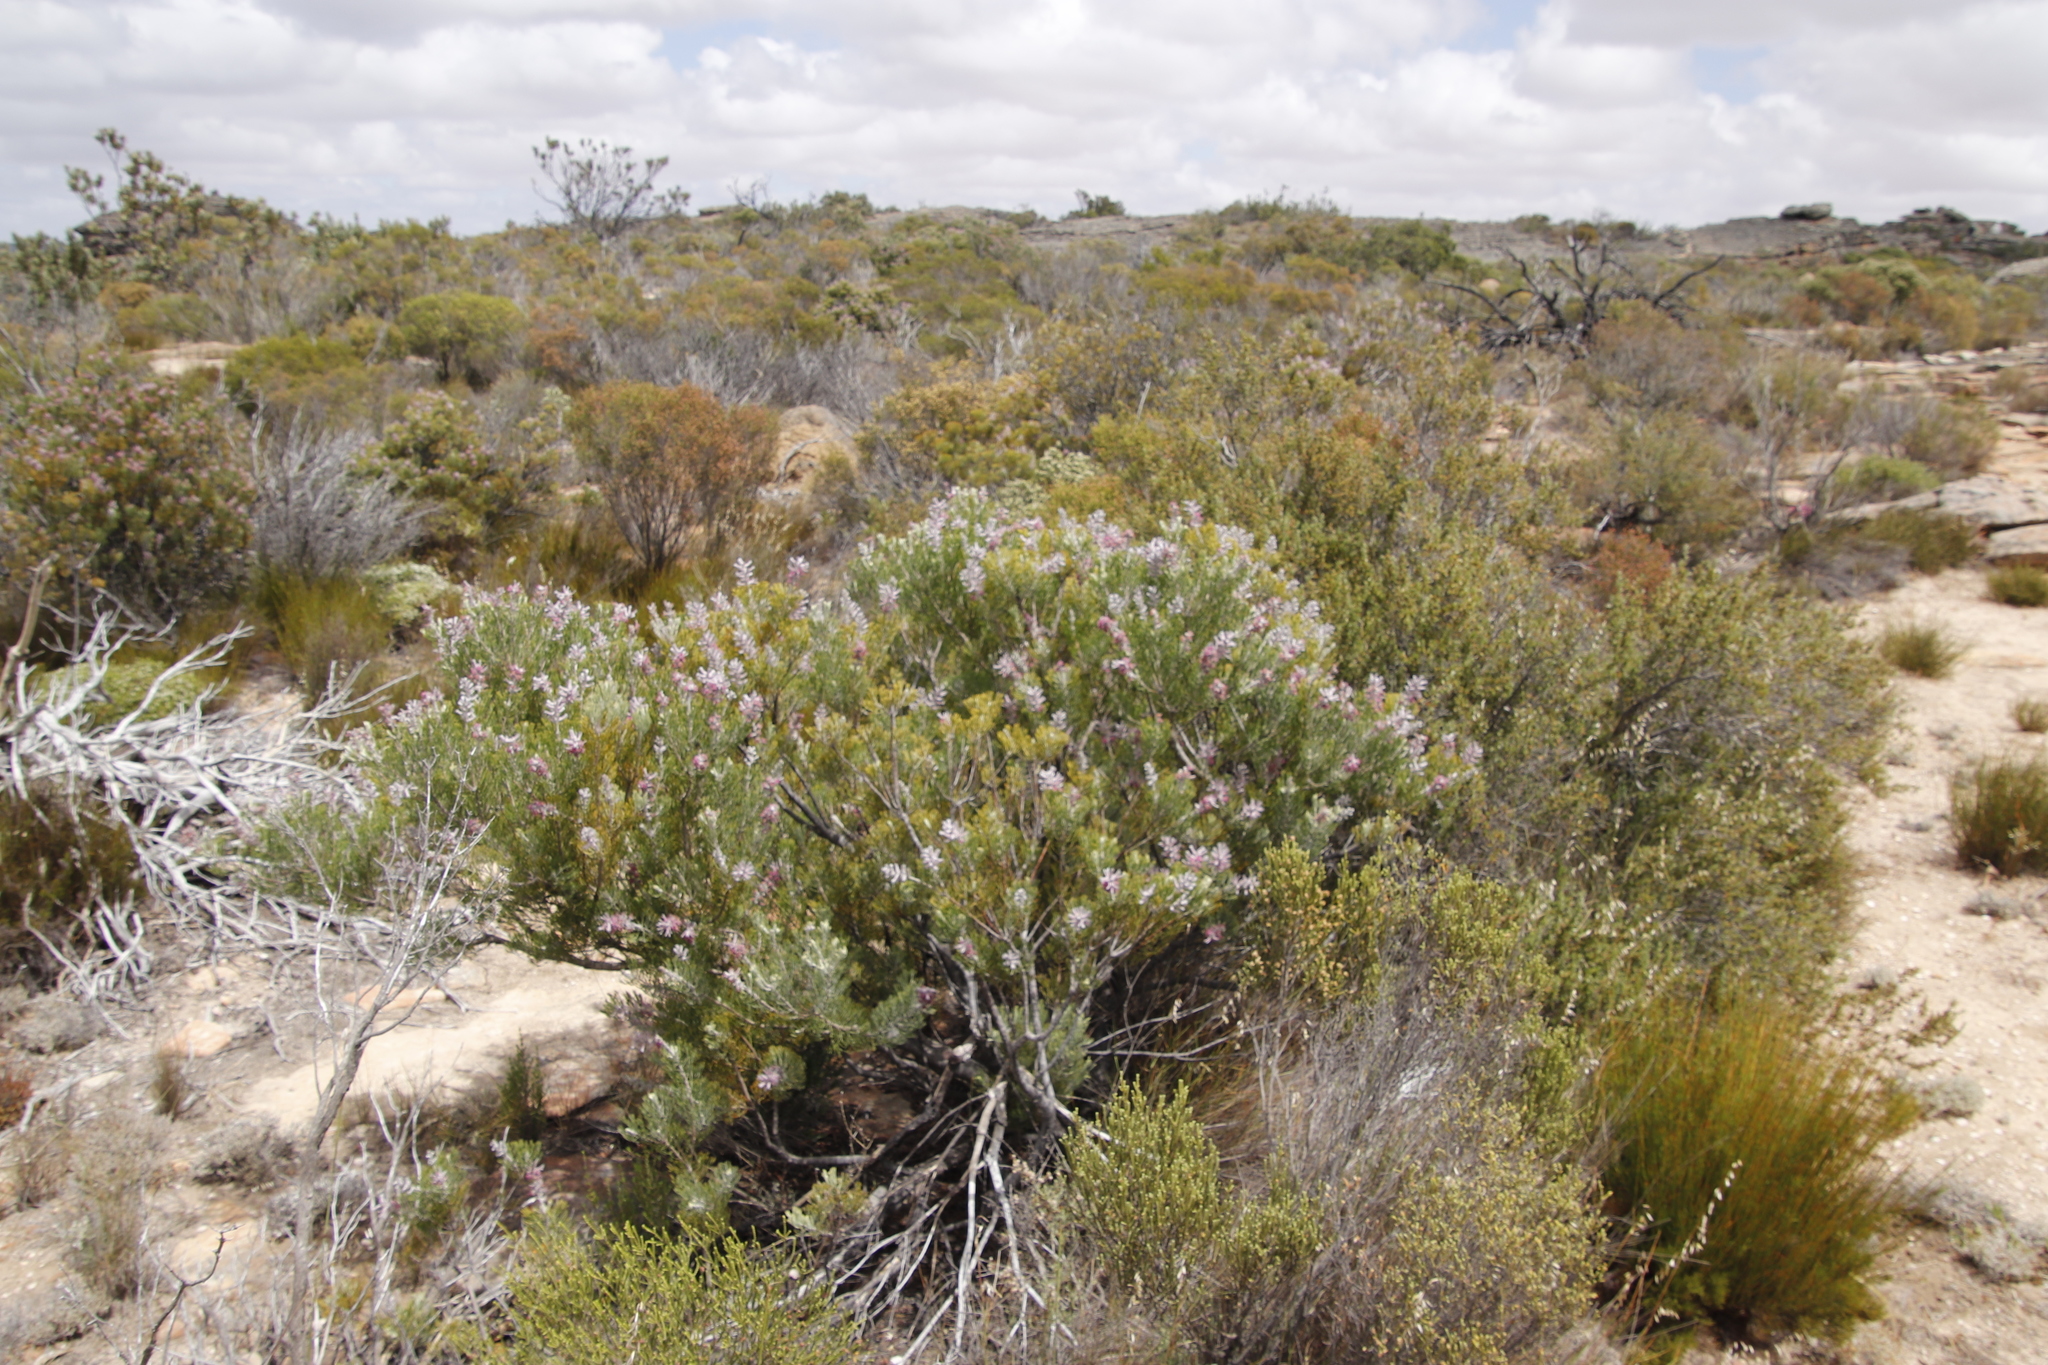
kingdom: Plantae
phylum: Tracheophyta
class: Magnoliopsida
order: Proteales
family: Proteaceae
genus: Paranomus
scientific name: Paranomus bracteolaris
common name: Bokkeveld tree sceptre
